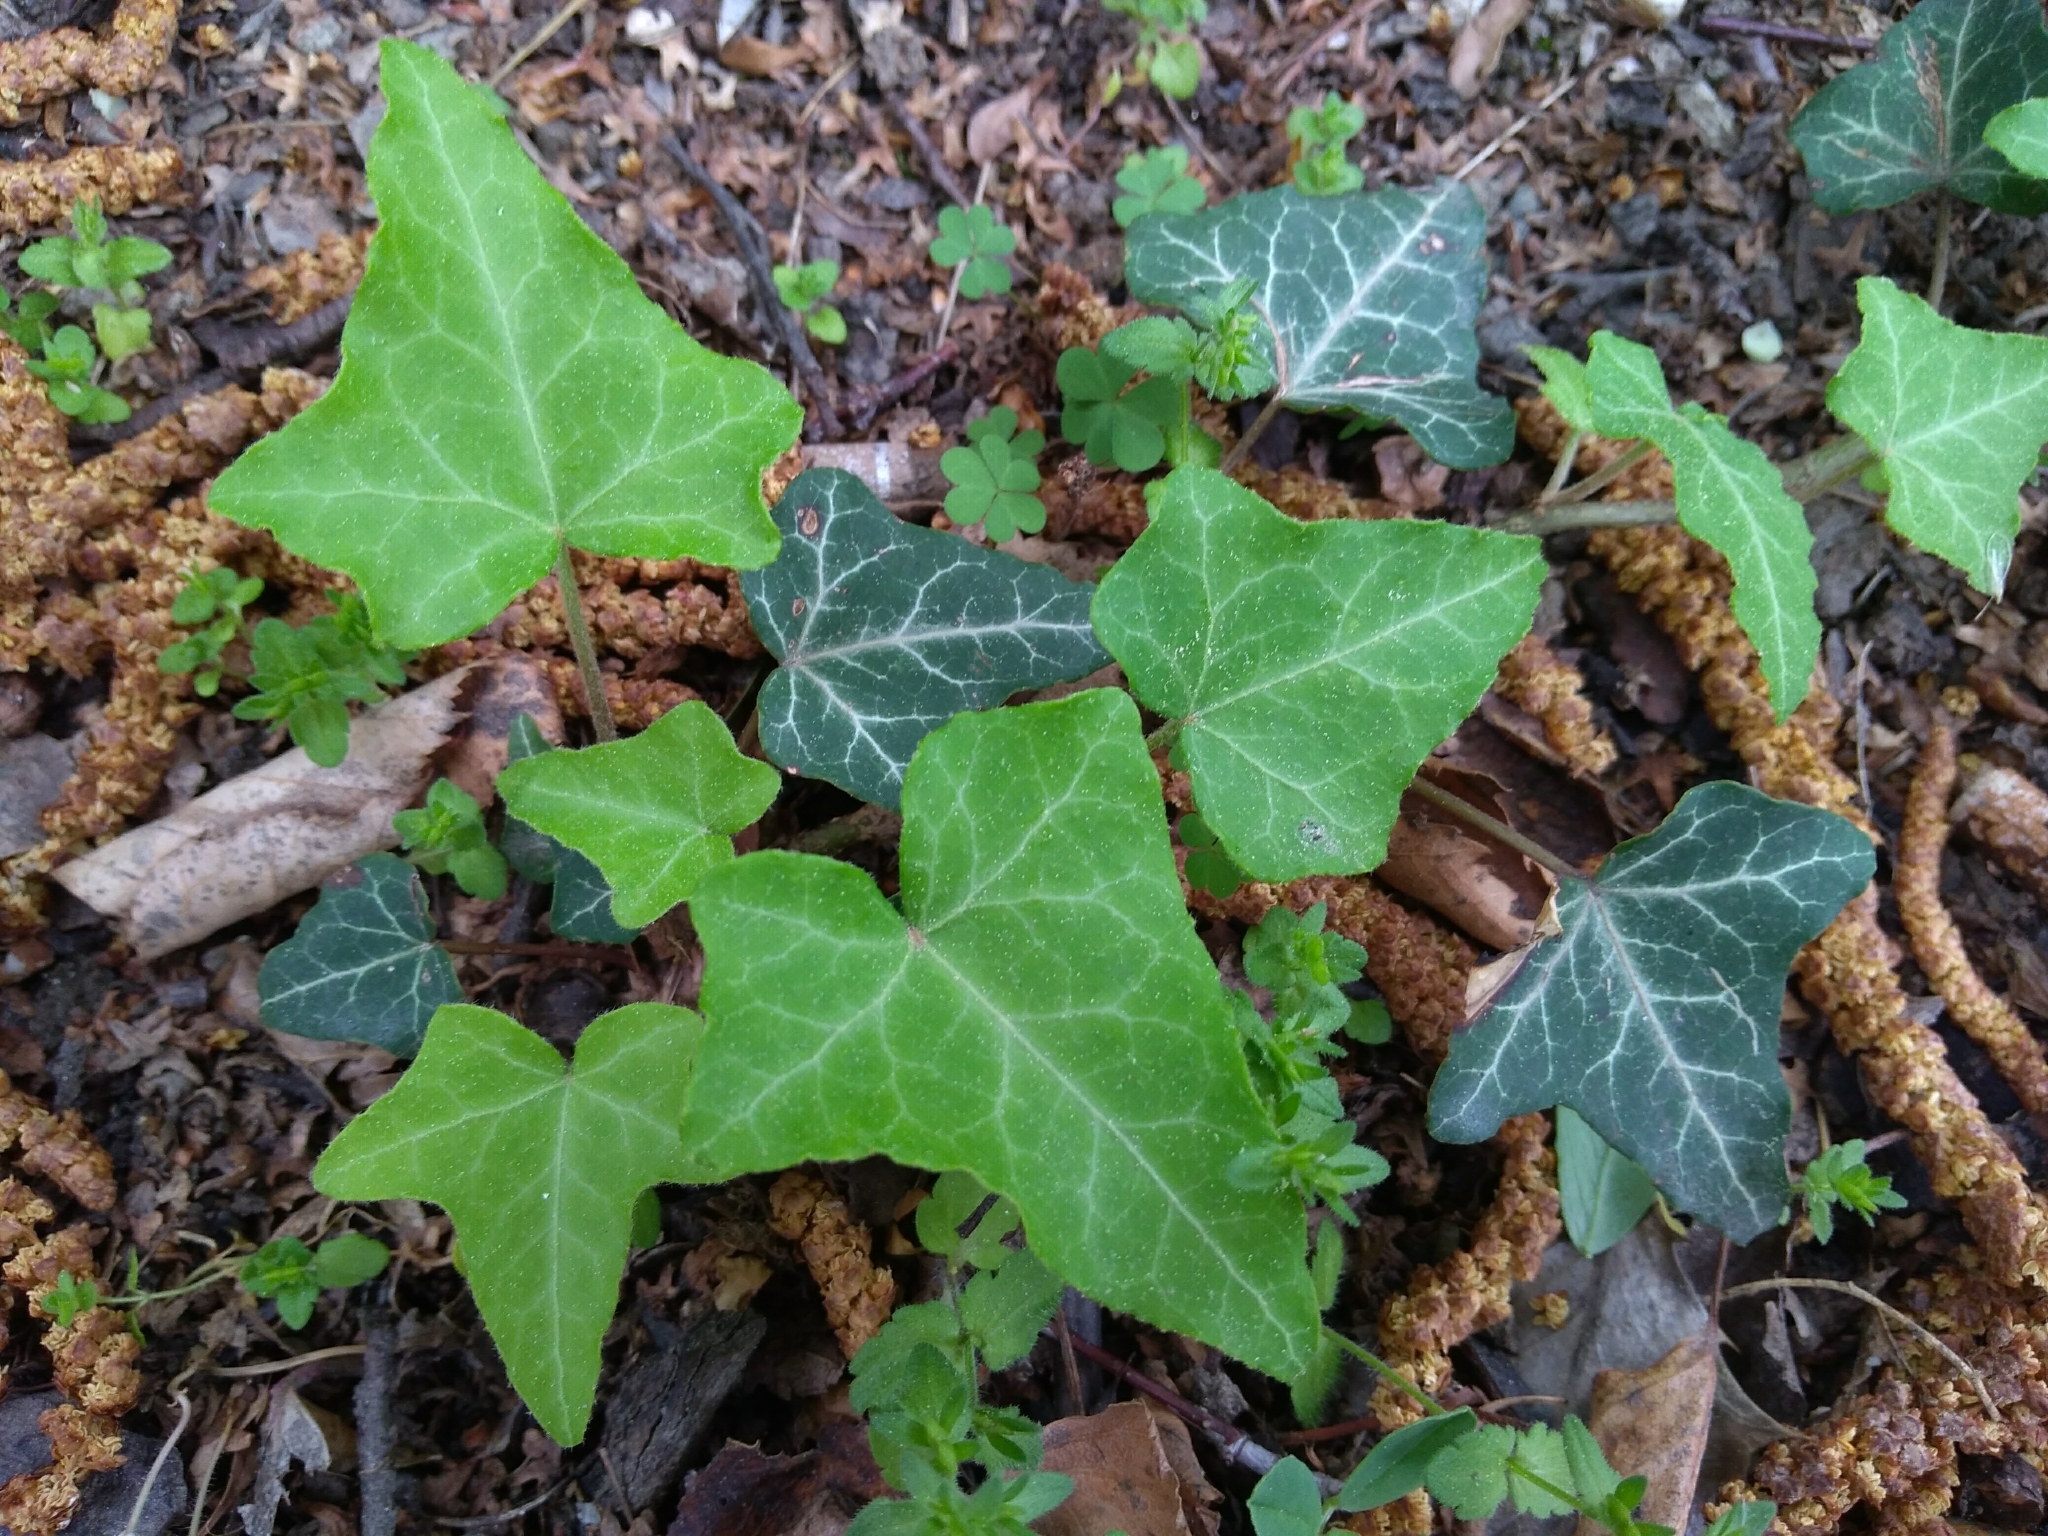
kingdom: Plantae
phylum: Tracheophyta
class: Magnoliopsida
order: Apiales
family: Araliaceae
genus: Hedera
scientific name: Hedera helix
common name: Ivy
